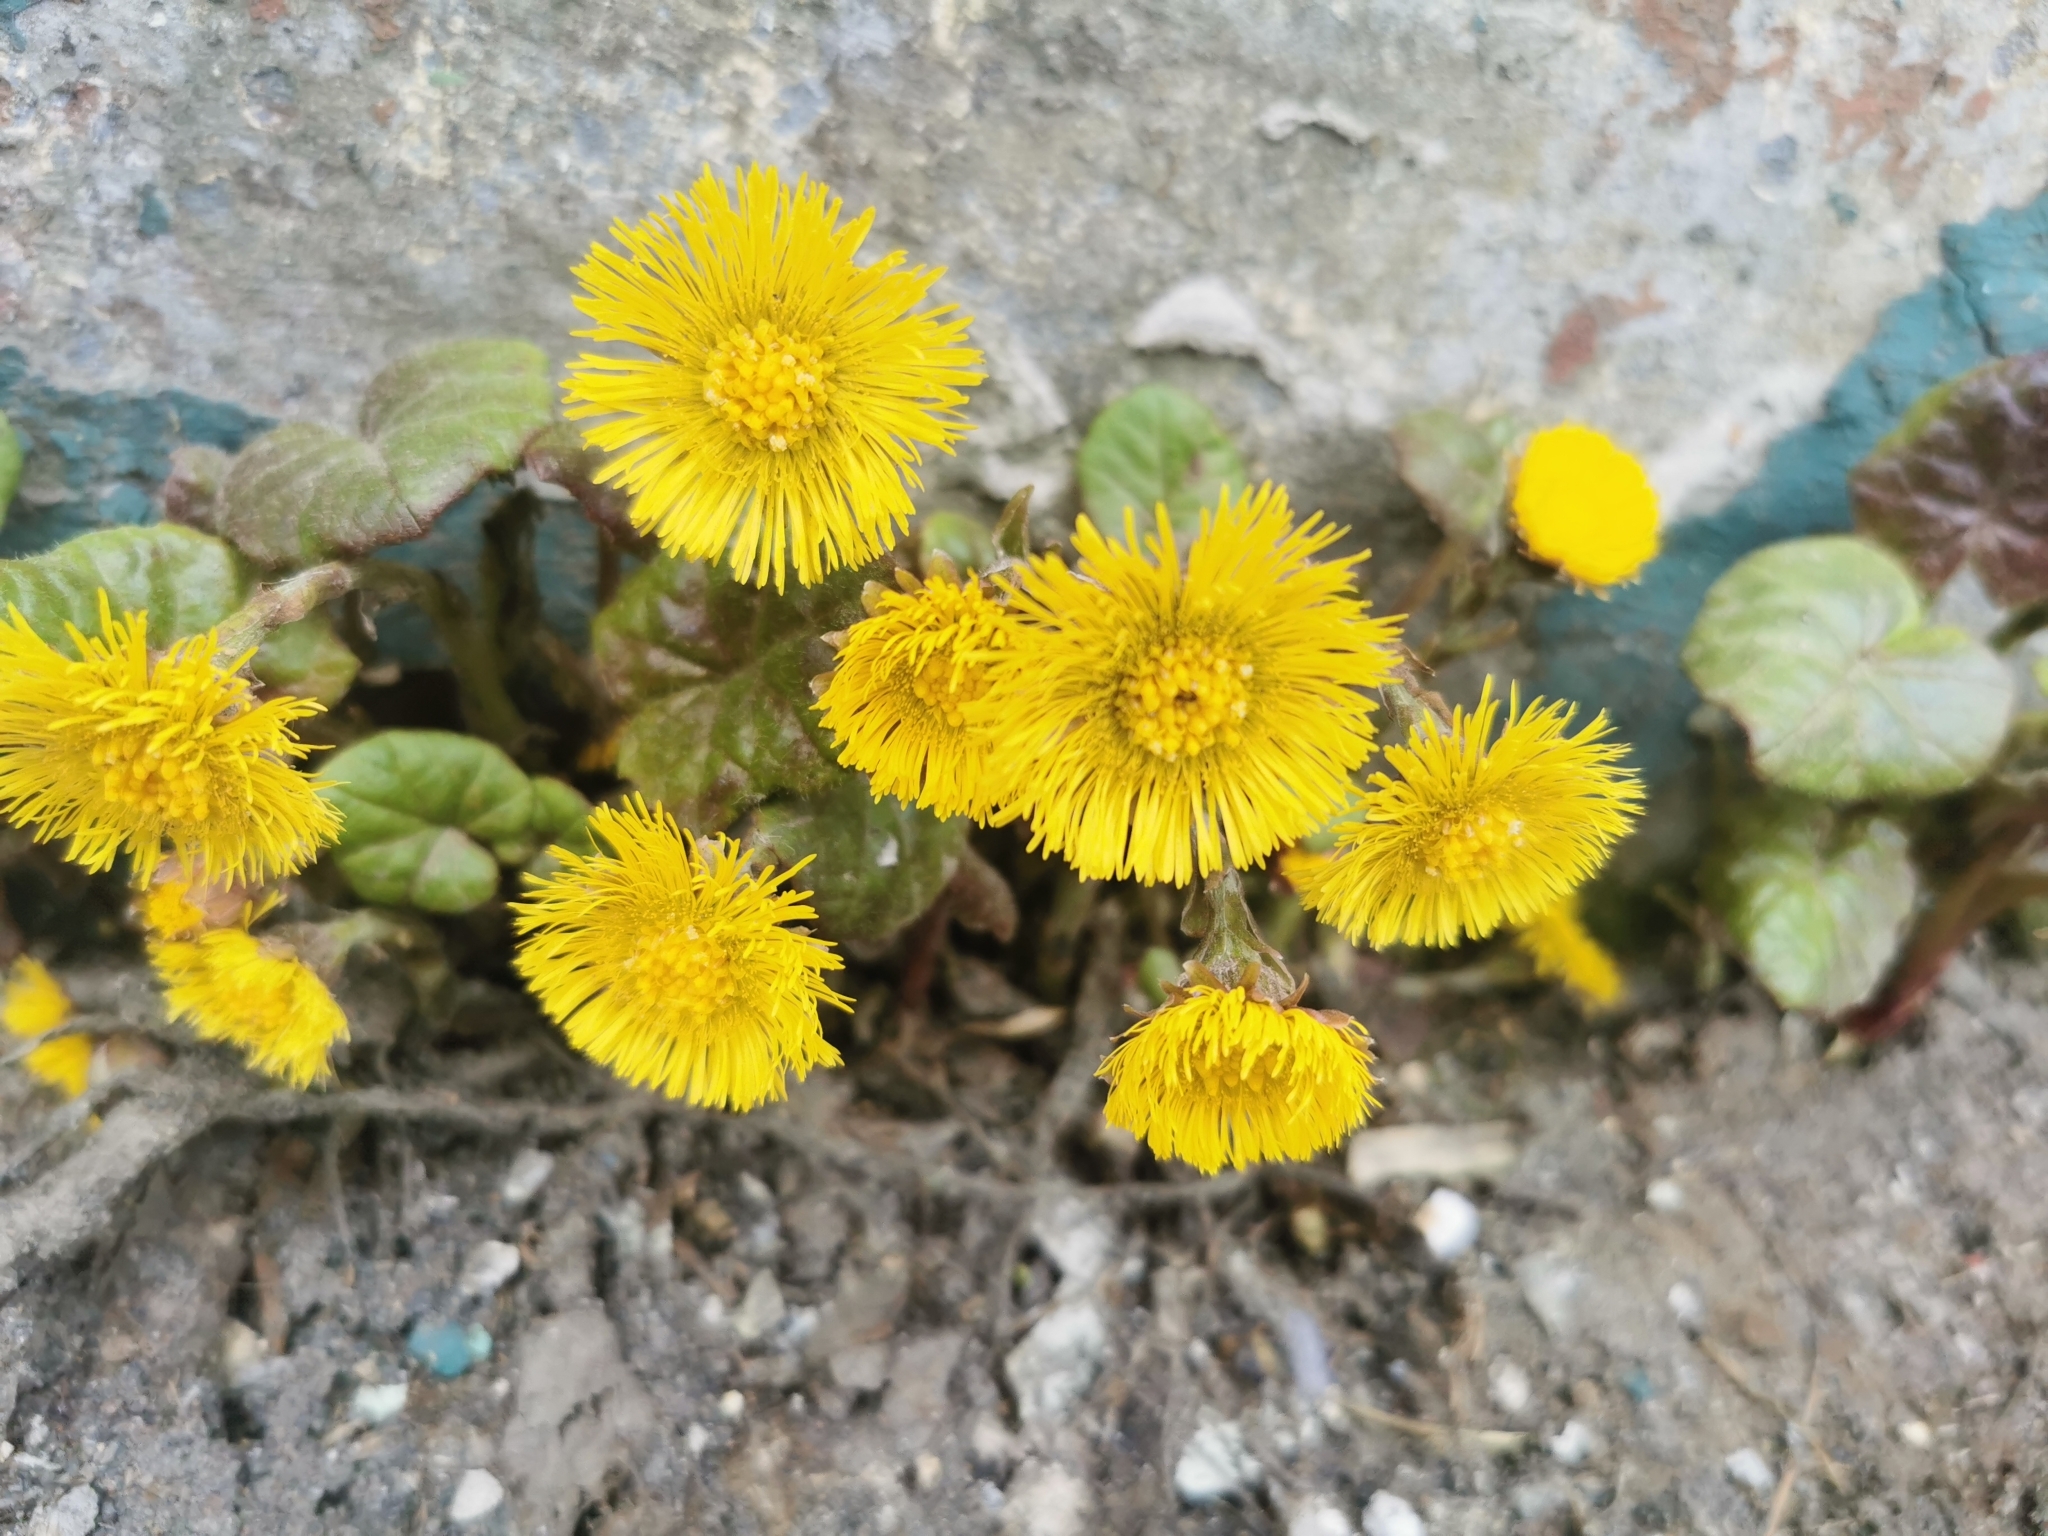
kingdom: Plantae
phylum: Tracheophyta
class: Magnoliopsida
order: Asterales
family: Asteraceae
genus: Tussilago
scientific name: Tussilago farfara
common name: Coltsfoot
